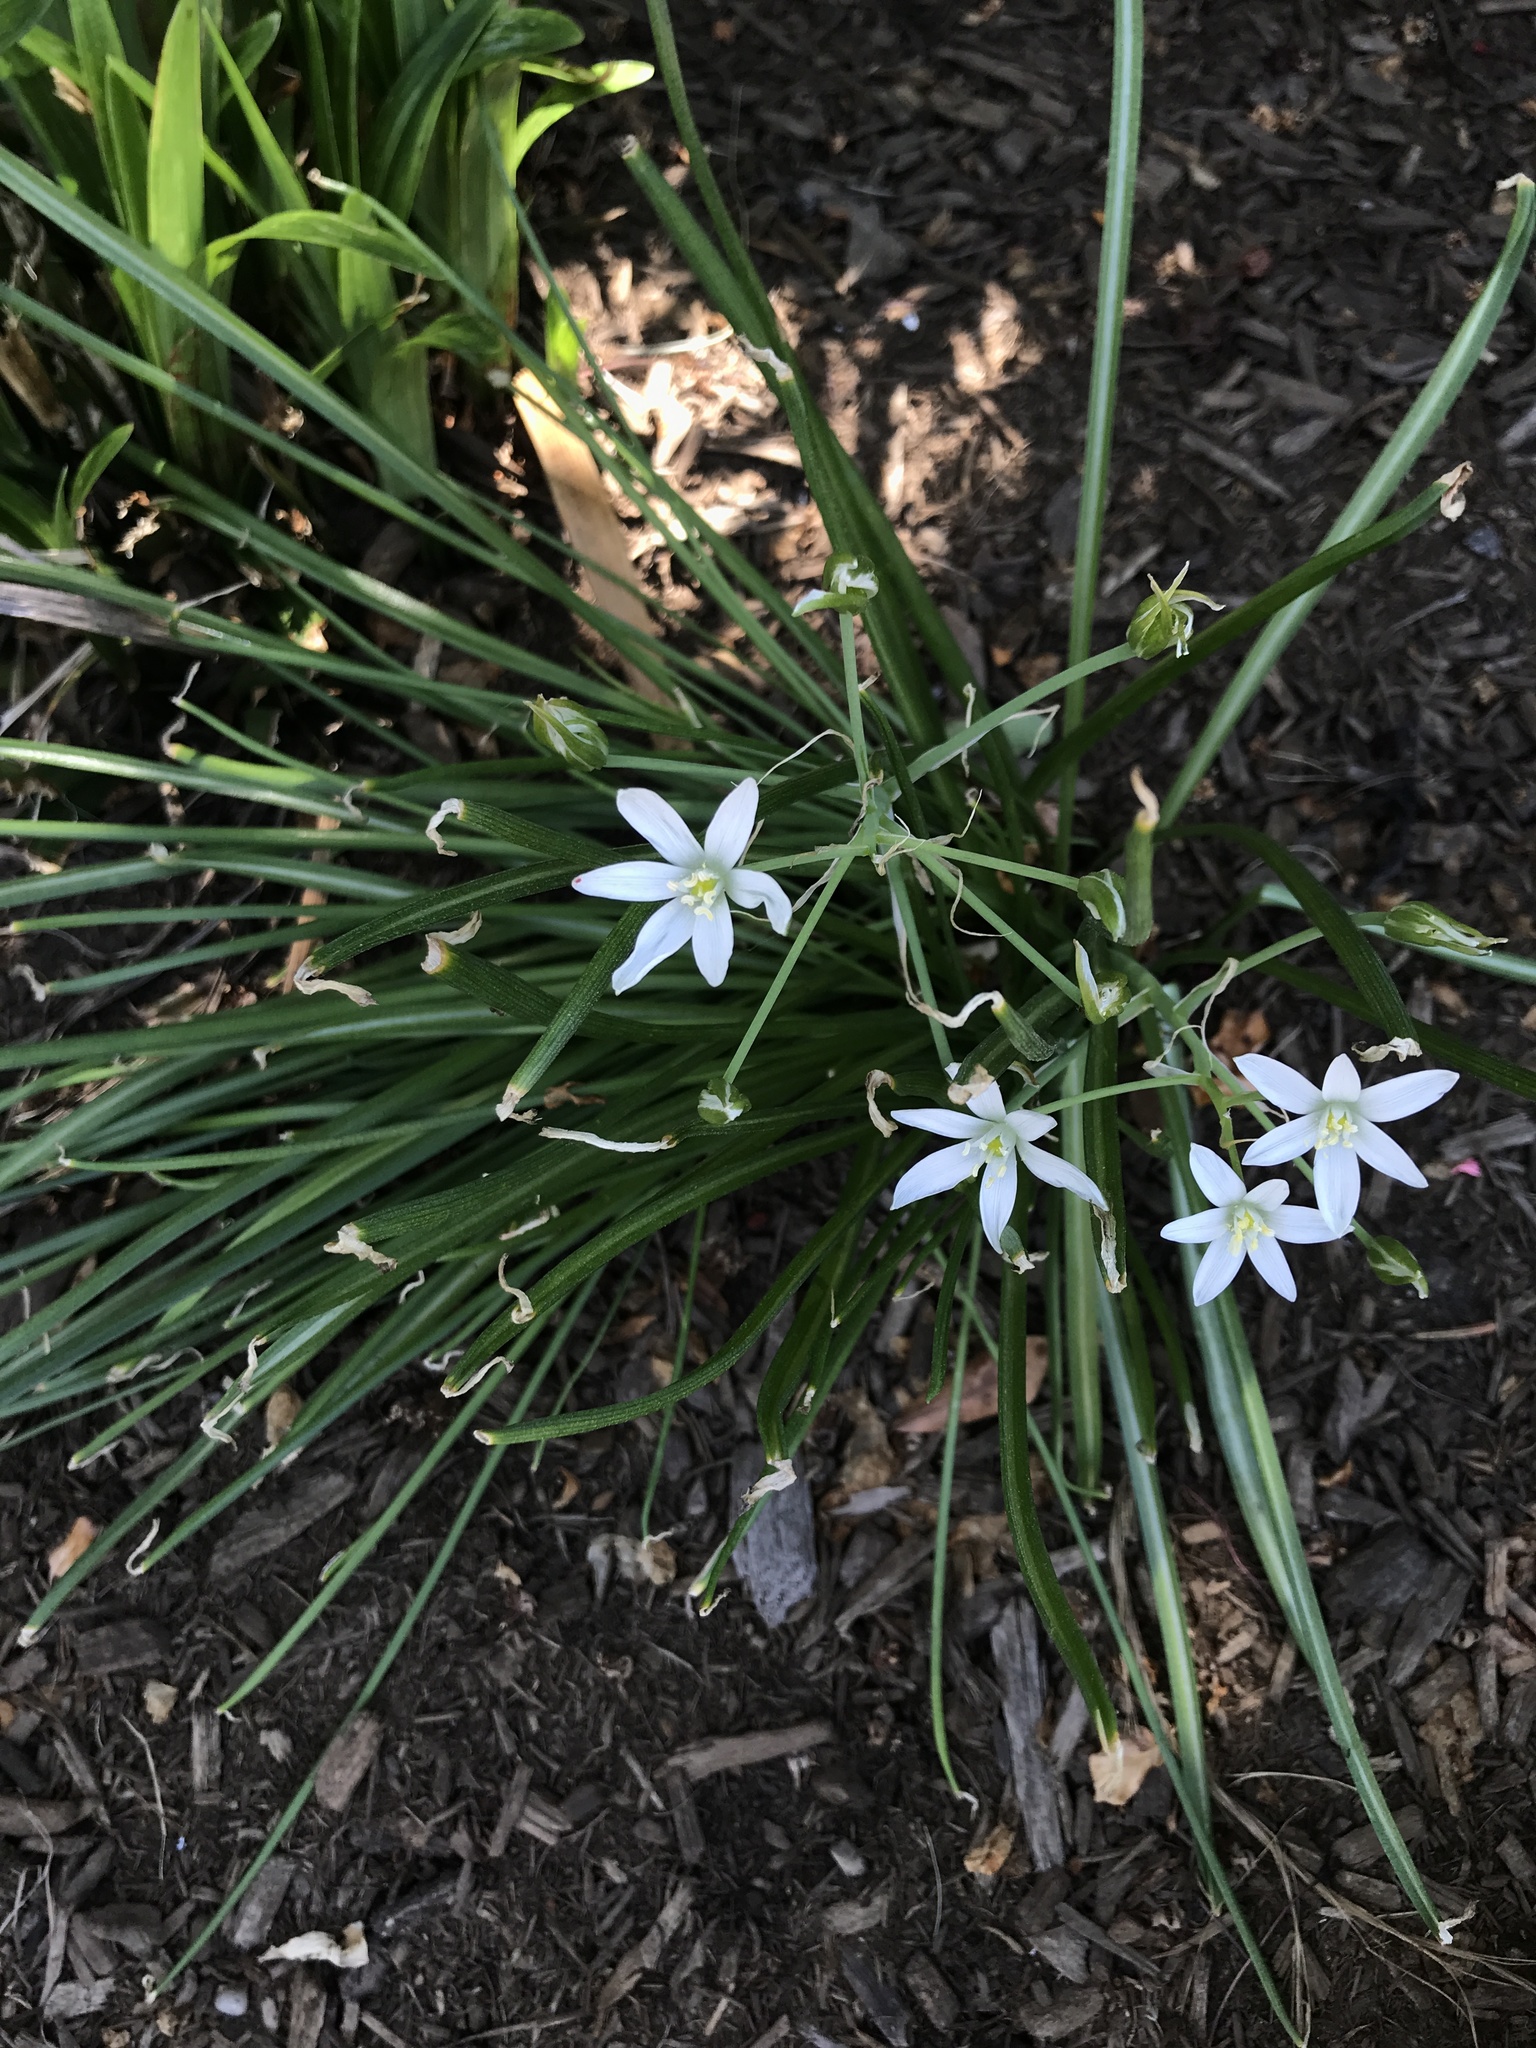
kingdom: Plantae
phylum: Tracheophyta
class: Liliopsida
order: Asparagales
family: Asparagaceae
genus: Ornithogalum
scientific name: Ornithogalum umbellatum
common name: Garden star-of-bethlehem
